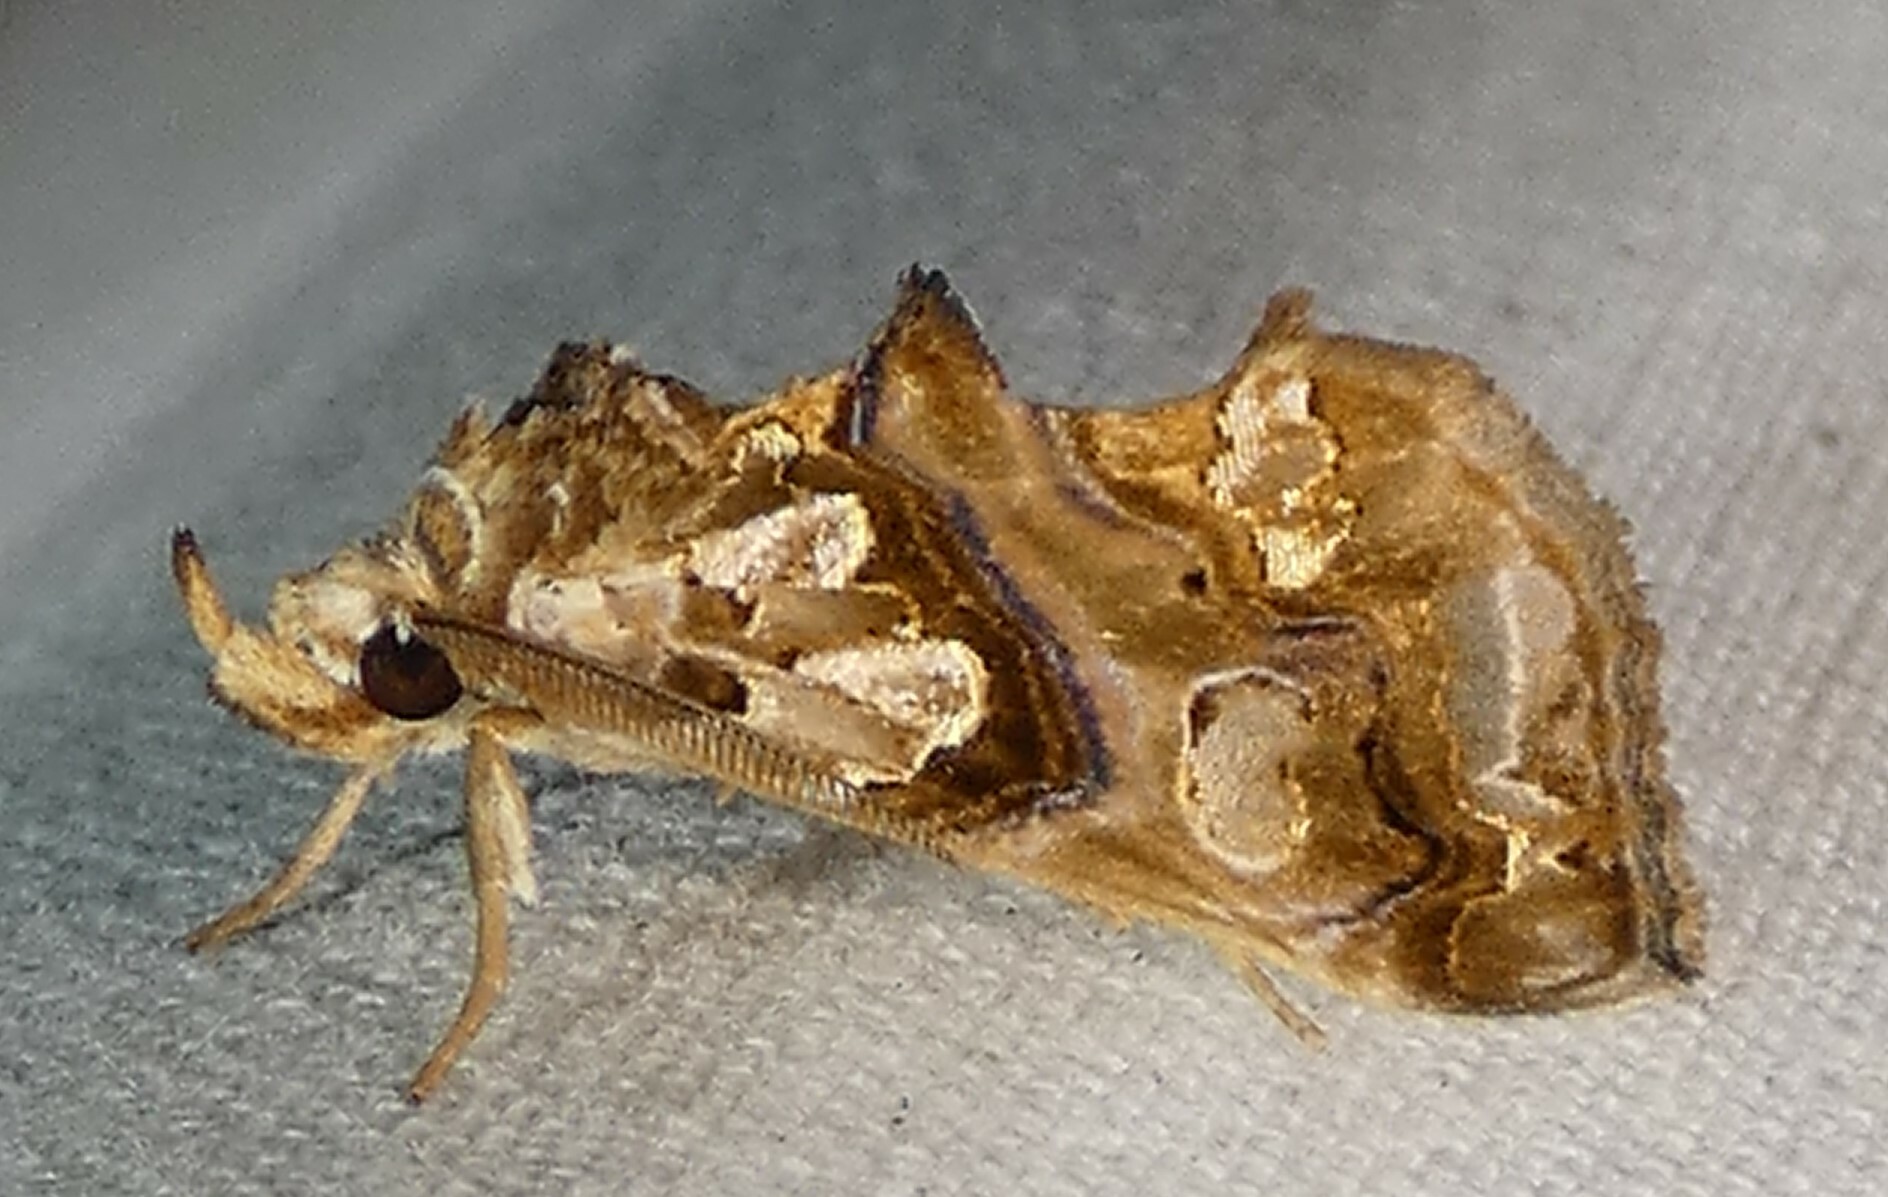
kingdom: Animalia
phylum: Arthropoda
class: Insecta
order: Lepidoptera
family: Erebidae
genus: Plusiodonta
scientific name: Plusiodonta compressipalpis
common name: Moonseed moth
